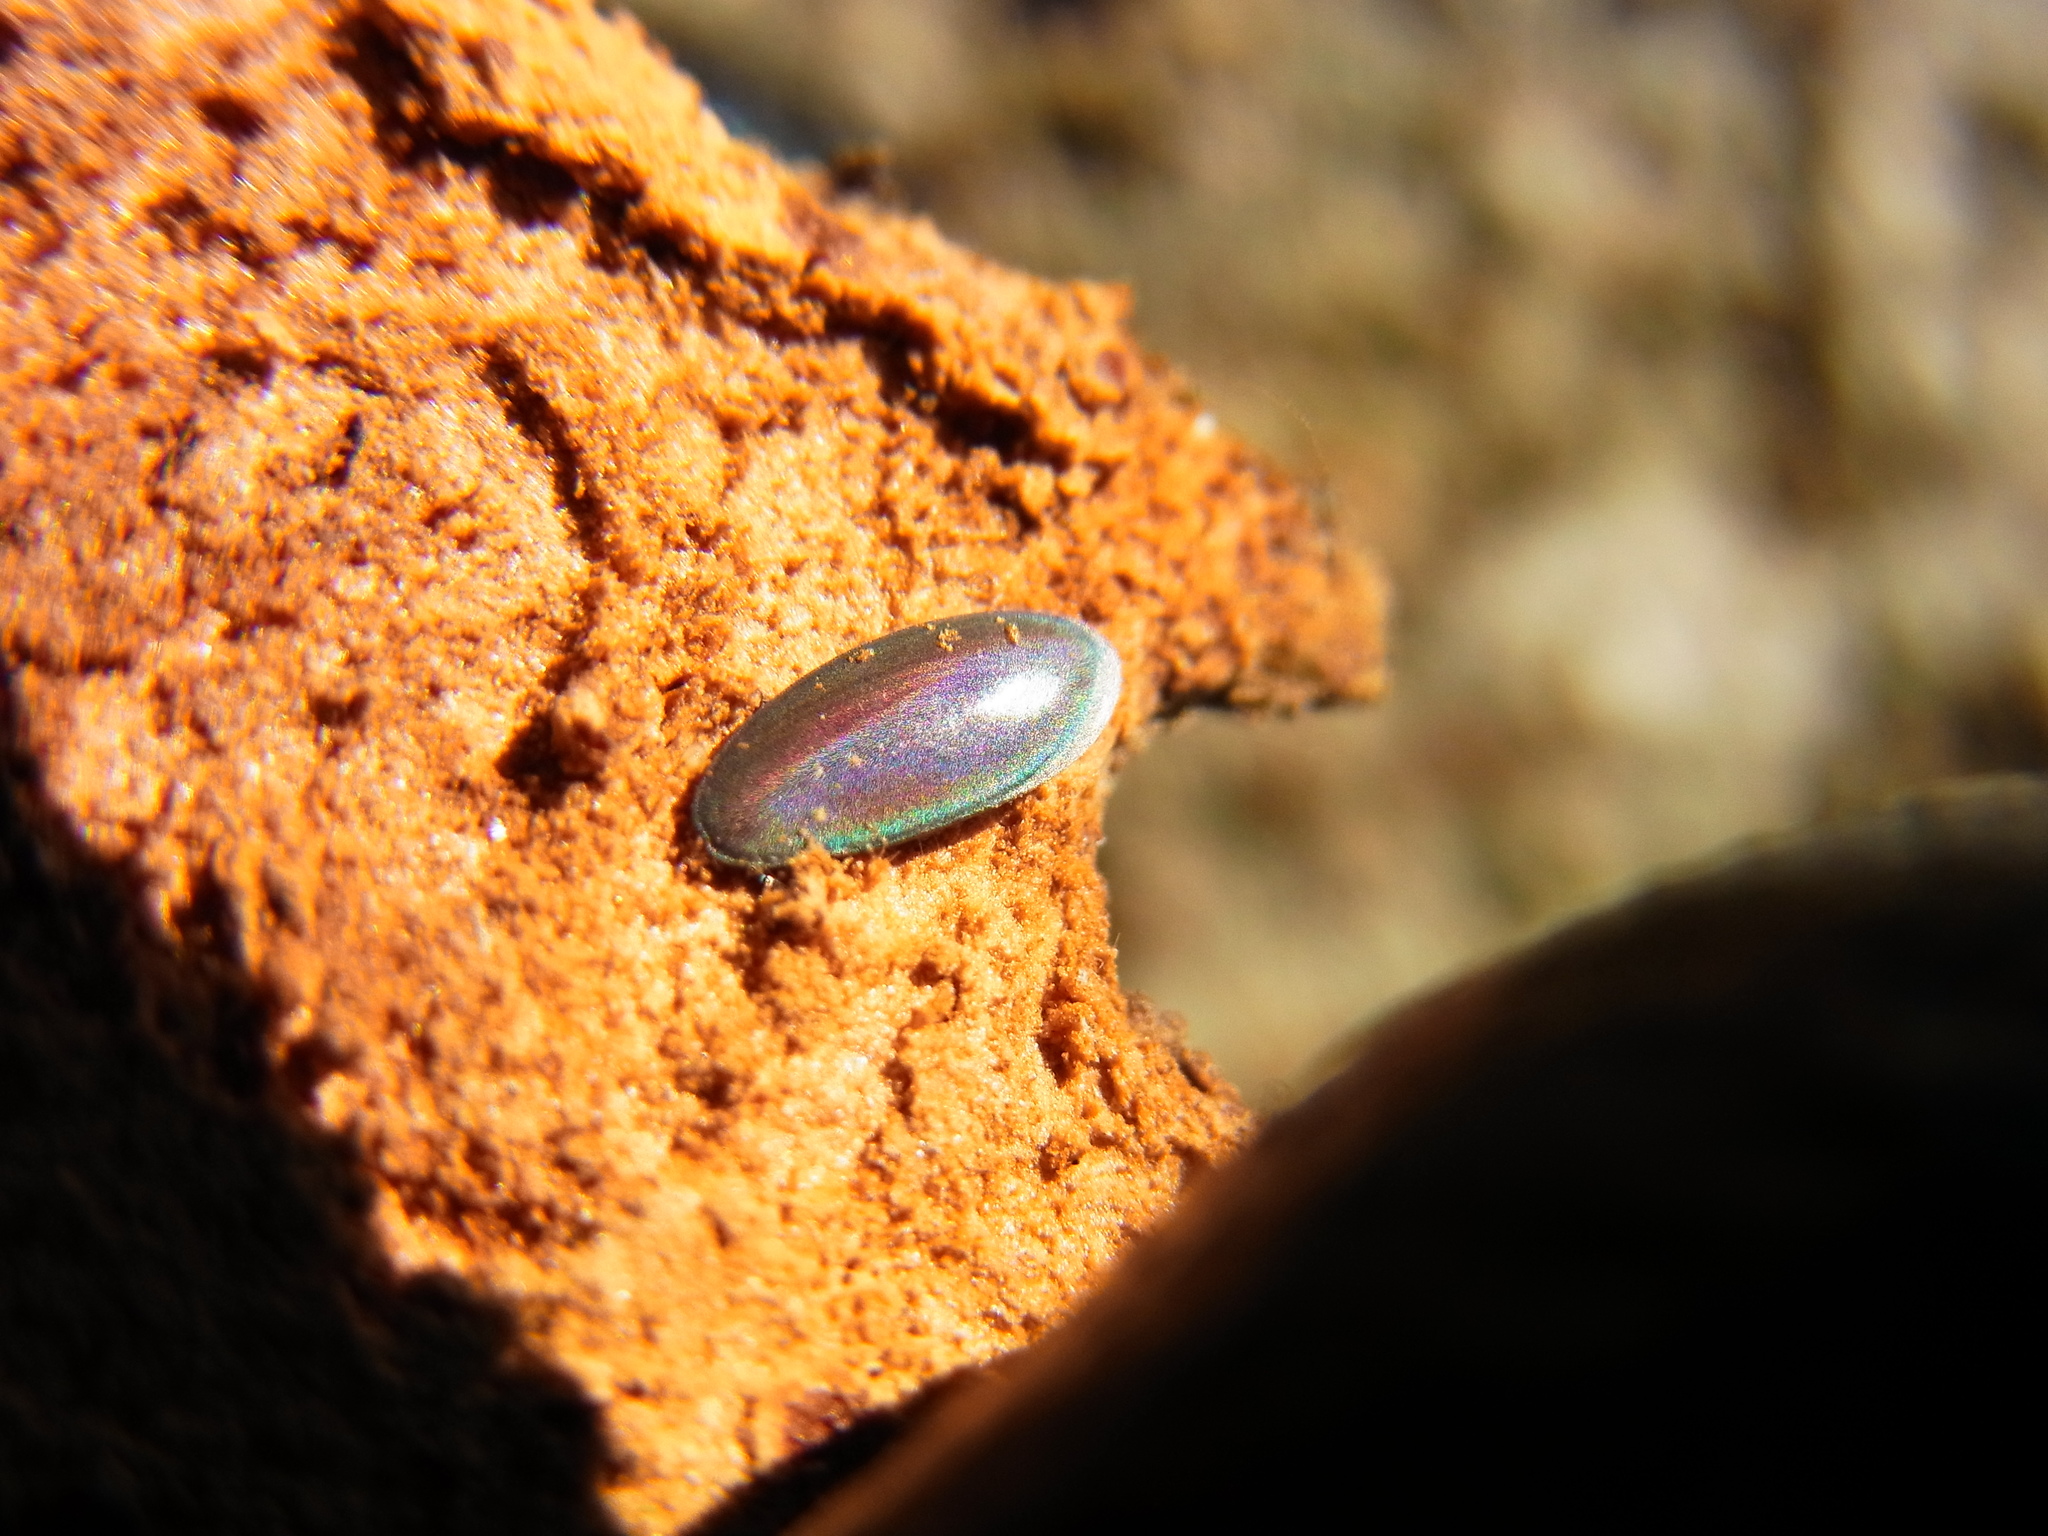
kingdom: Animalia
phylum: Arthropoda
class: Insecta
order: Orthoptera
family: Tettigoniidae
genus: Phaulula
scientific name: Phaulula macilenta
